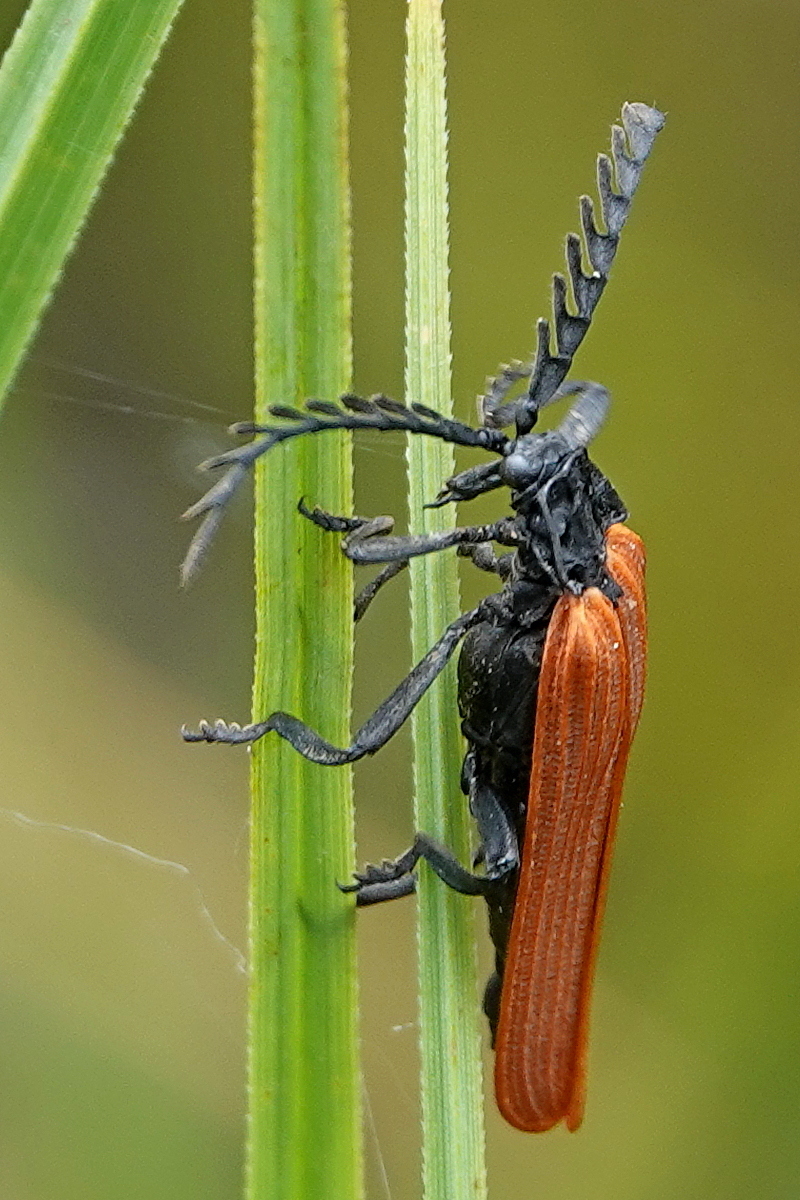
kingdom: Animalia
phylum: Arthropoda
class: Insecta
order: Coleoptera
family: Lycidae
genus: Porrostoma
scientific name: Porrostoma rhipidium
